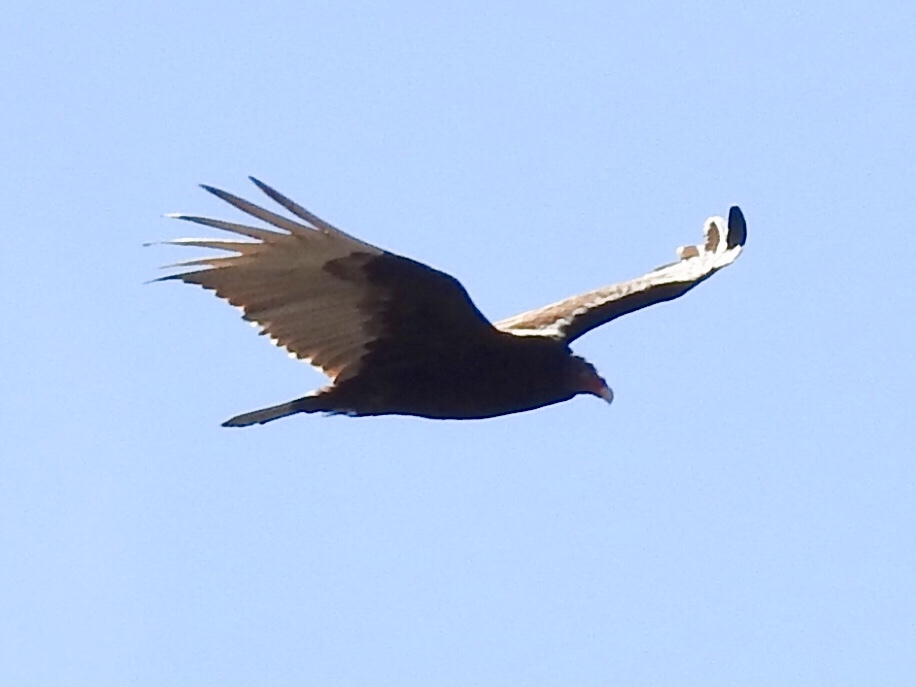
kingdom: Animalia
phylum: Chordata
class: Aves
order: Accipitriformes
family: Cathartidae
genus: Cathartes
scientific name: Cathartes aura
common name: Turkey vulture
